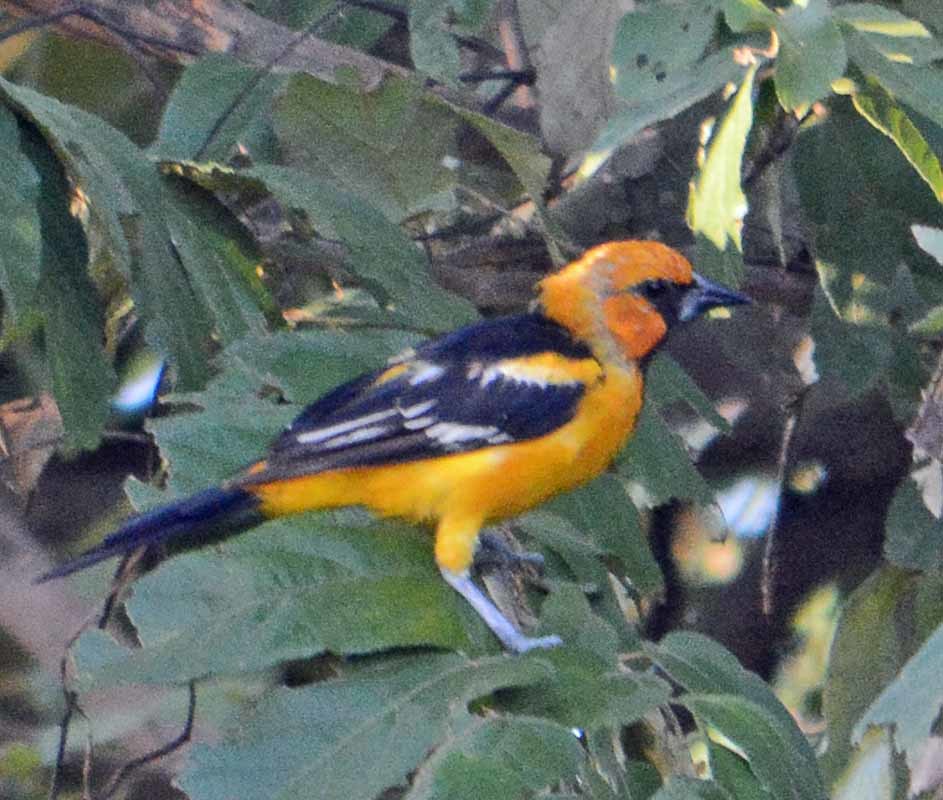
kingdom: Animalia
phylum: Chordata
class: Aves
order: Passeriformes
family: Icteridae
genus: Icterus
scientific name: Icterus gularis
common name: Altamira oriole
